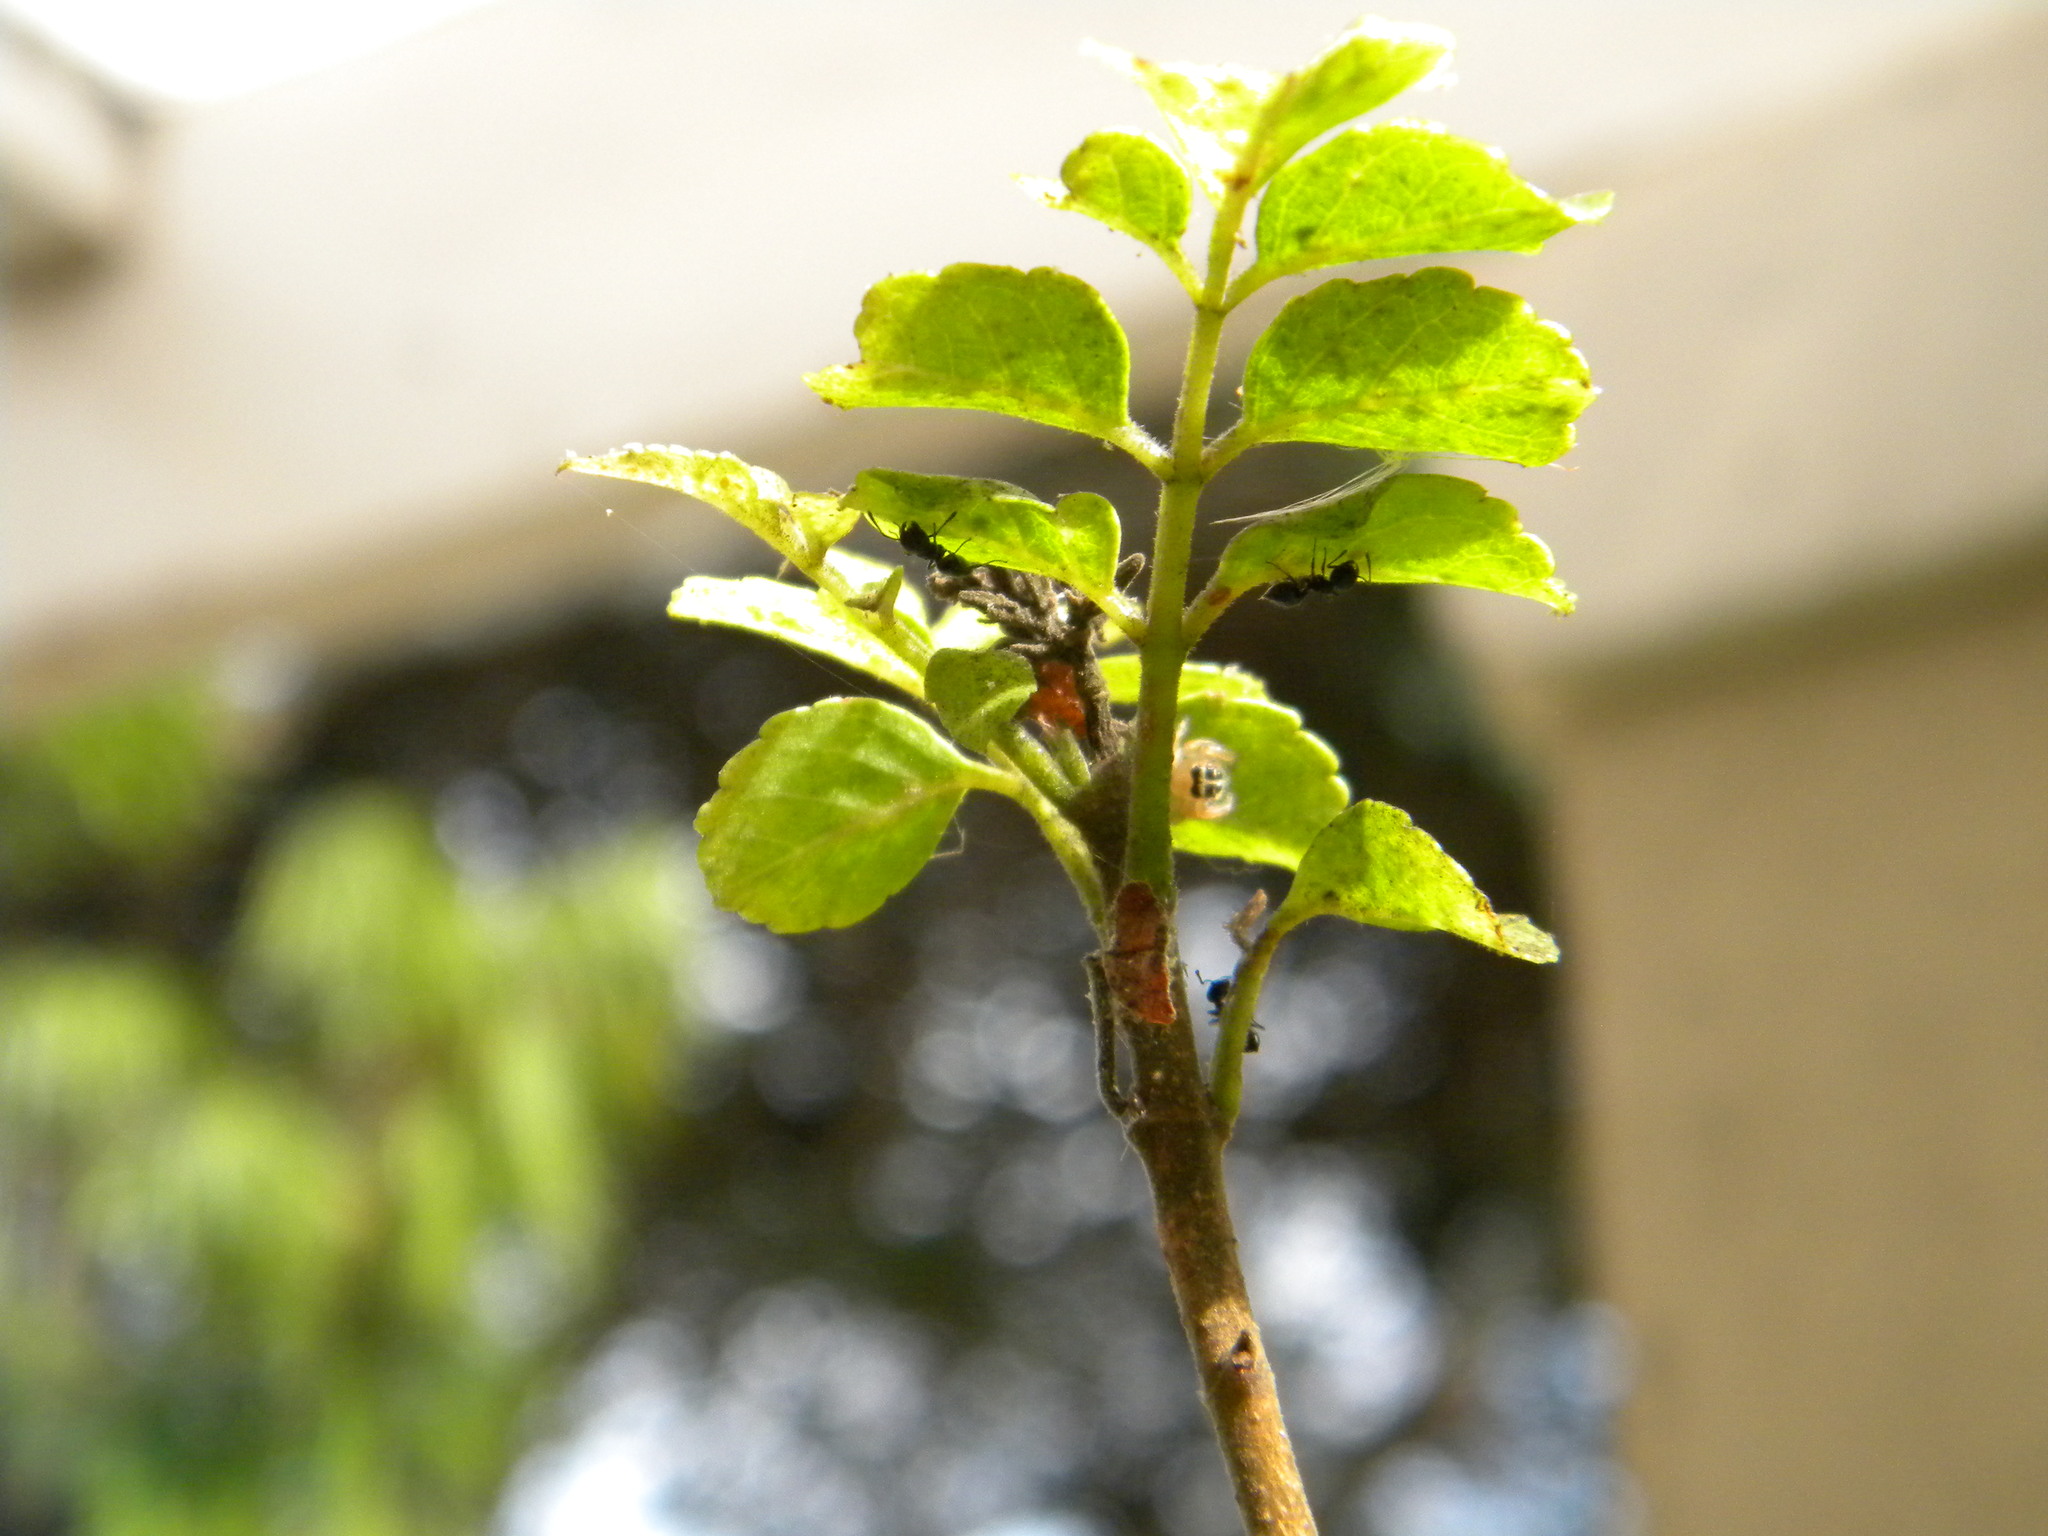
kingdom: Animalia
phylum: Arthropoda
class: Arachnida
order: Araneae
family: Salticidae
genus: Thyene
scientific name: Thyene inflata
